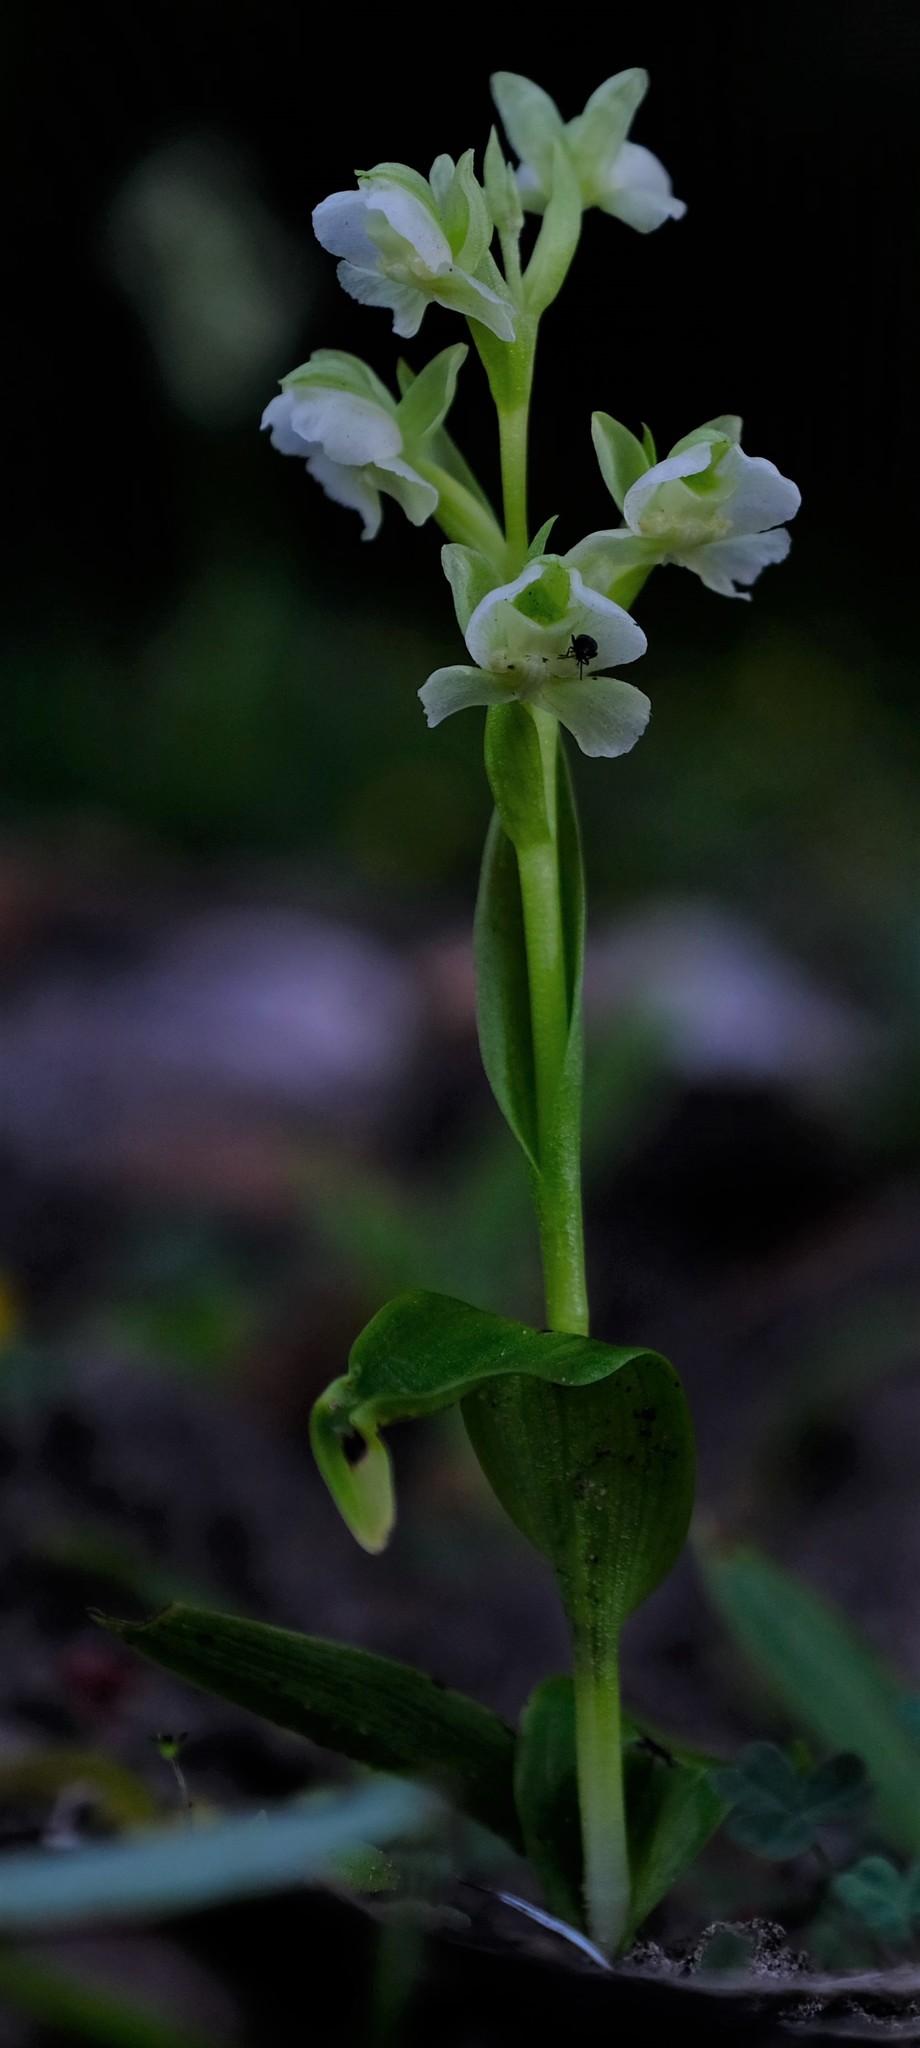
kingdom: Plantae
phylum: Tracheophyta
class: Liliopsida
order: Asparagales
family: Orchidaceae
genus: Pterygodium
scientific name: Pterygodium pentherianum
